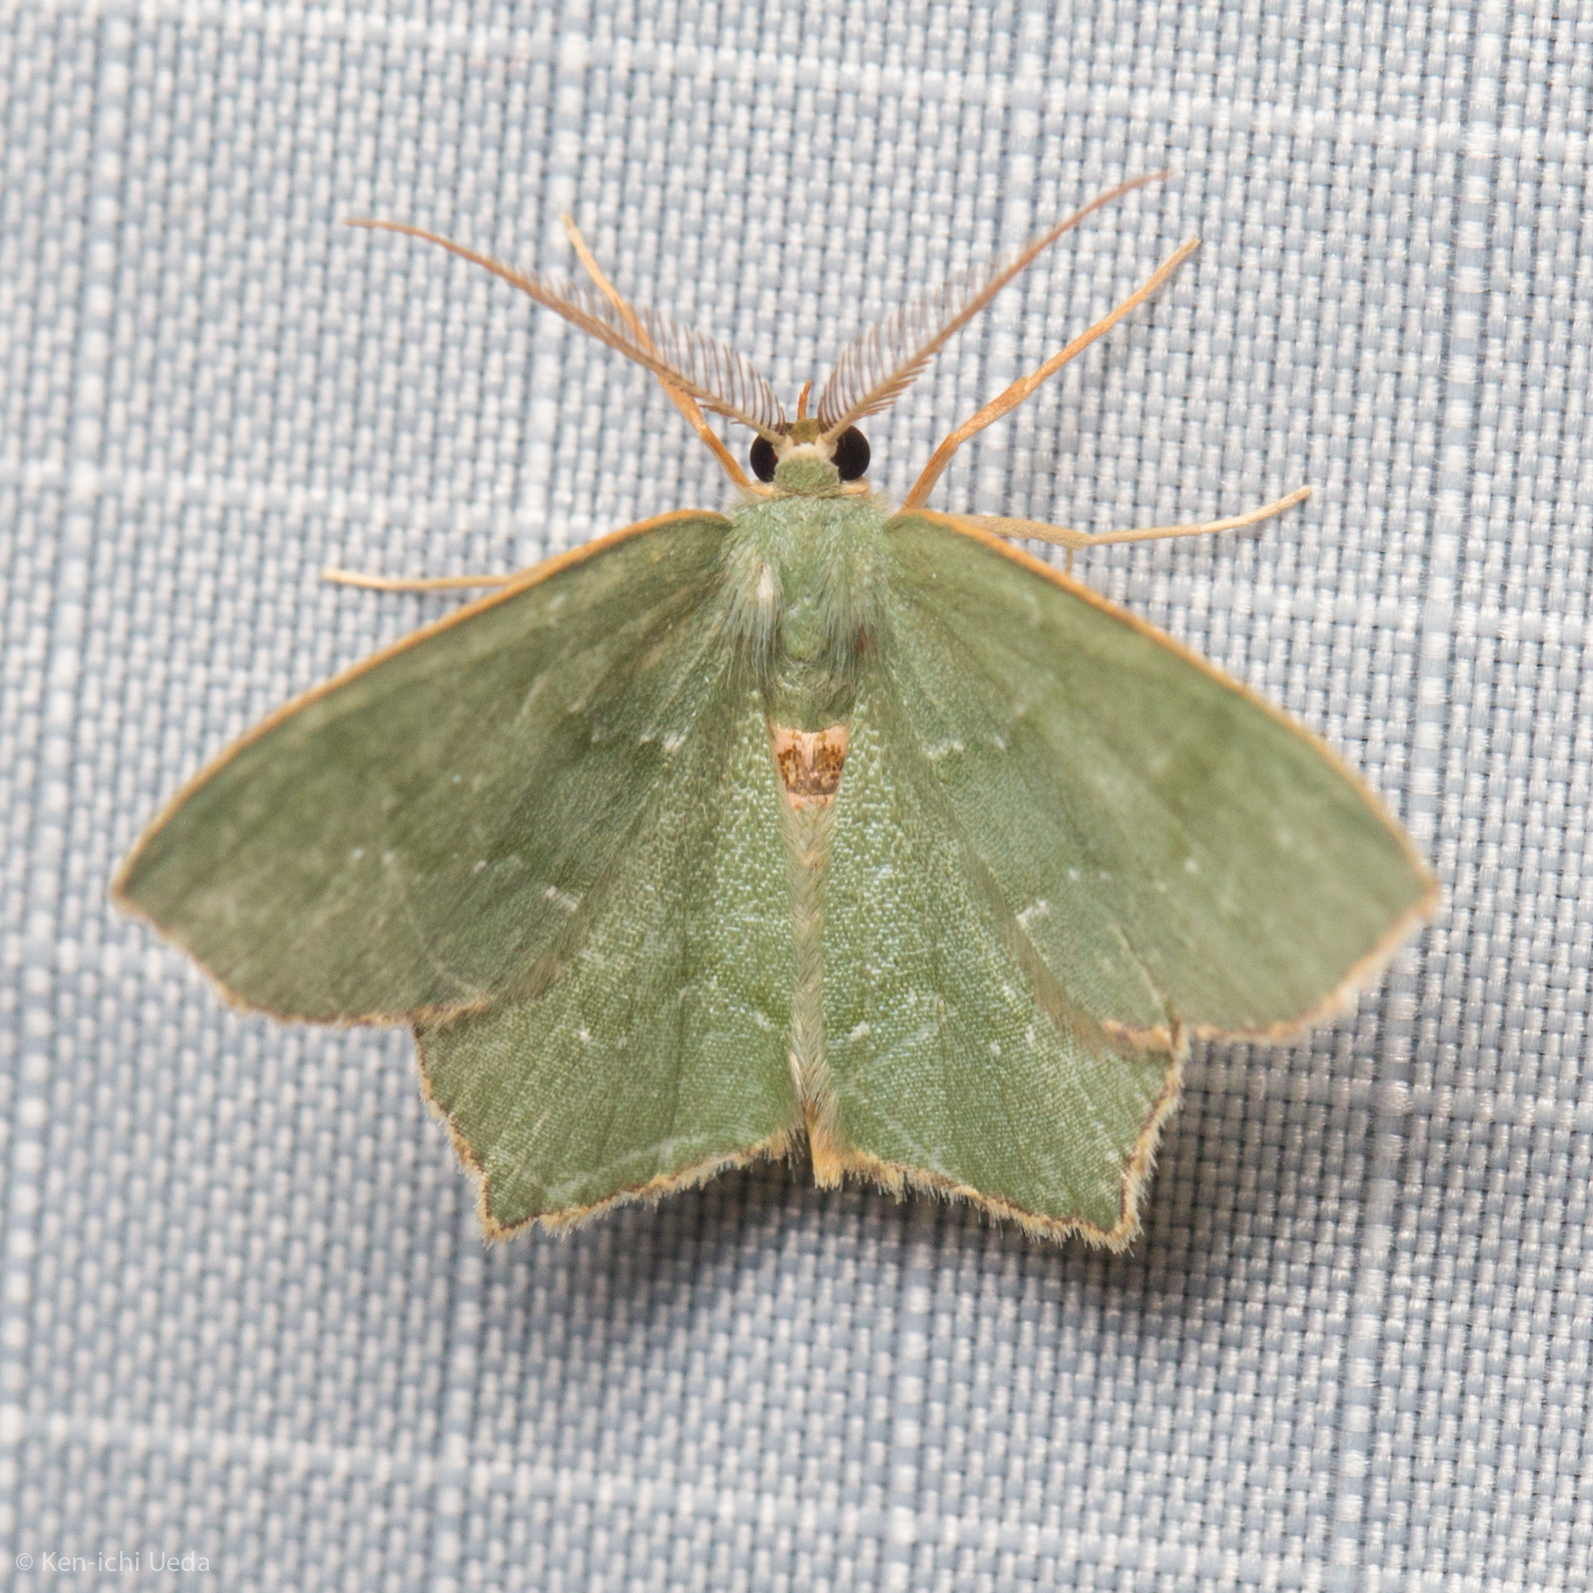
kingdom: Animalia
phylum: Arthropoda
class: Insecta
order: Lepidoptera
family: Geometridae
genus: Chloropteryx
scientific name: Chloropteryx tepperaria
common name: Angle winged emerald moth
